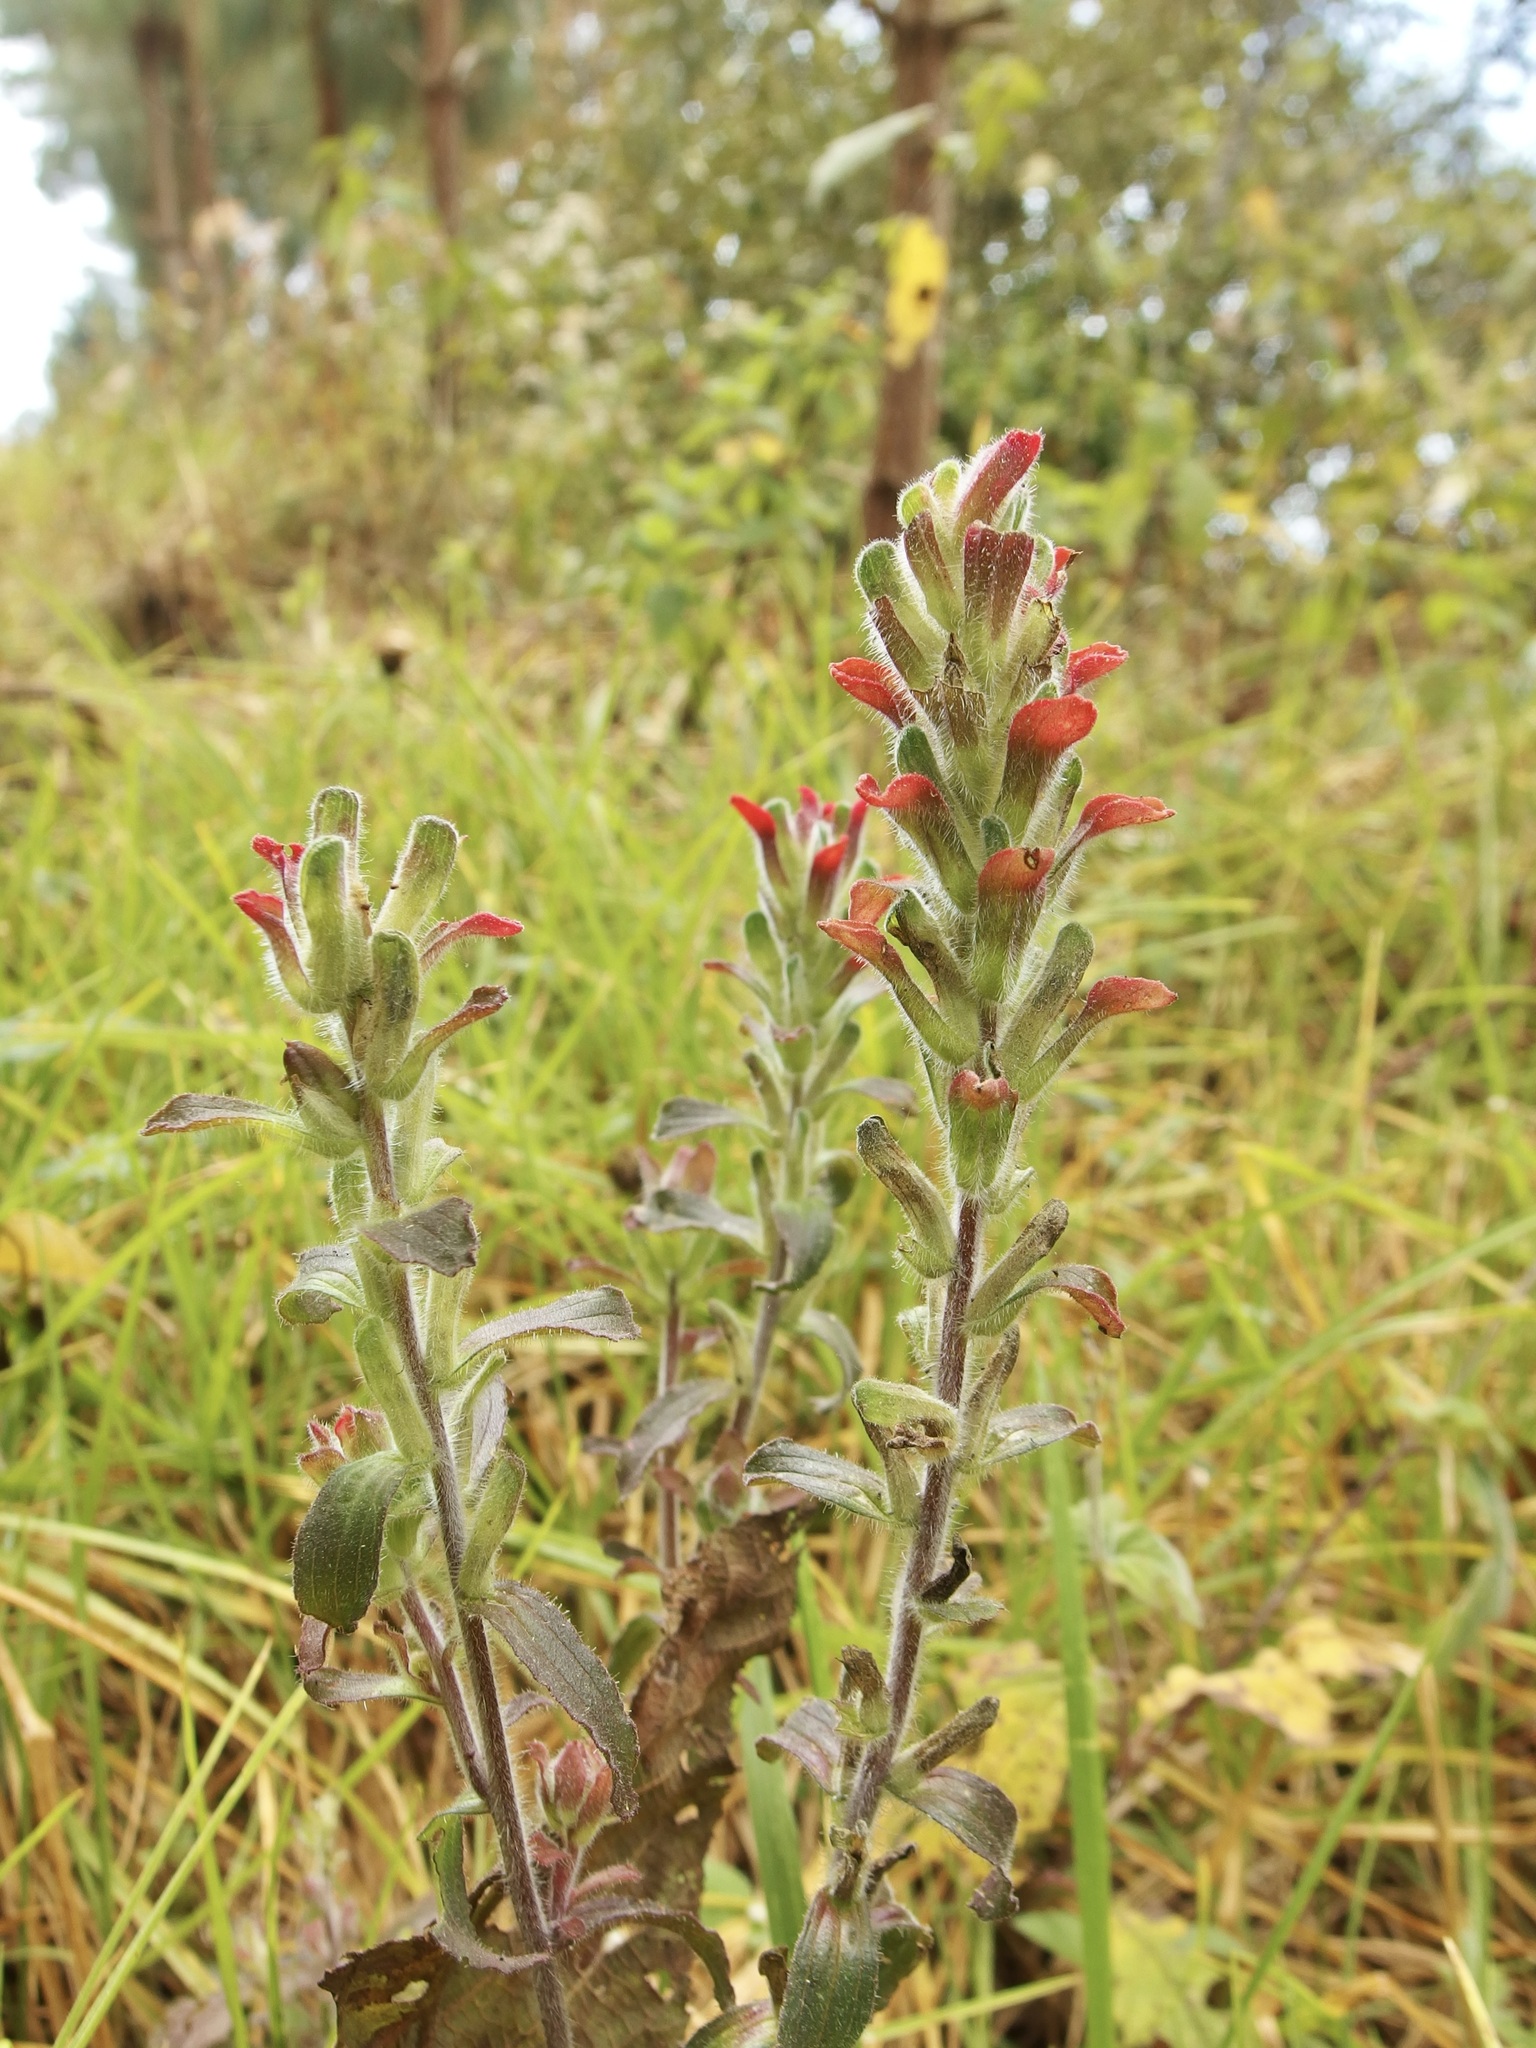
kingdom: Plantae
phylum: Tracheophyta
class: Magnoliopsida
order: Lamiales
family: Orobanchaceae
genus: Castilleja
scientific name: Castilleja arvensis
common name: Indian paintbrush
